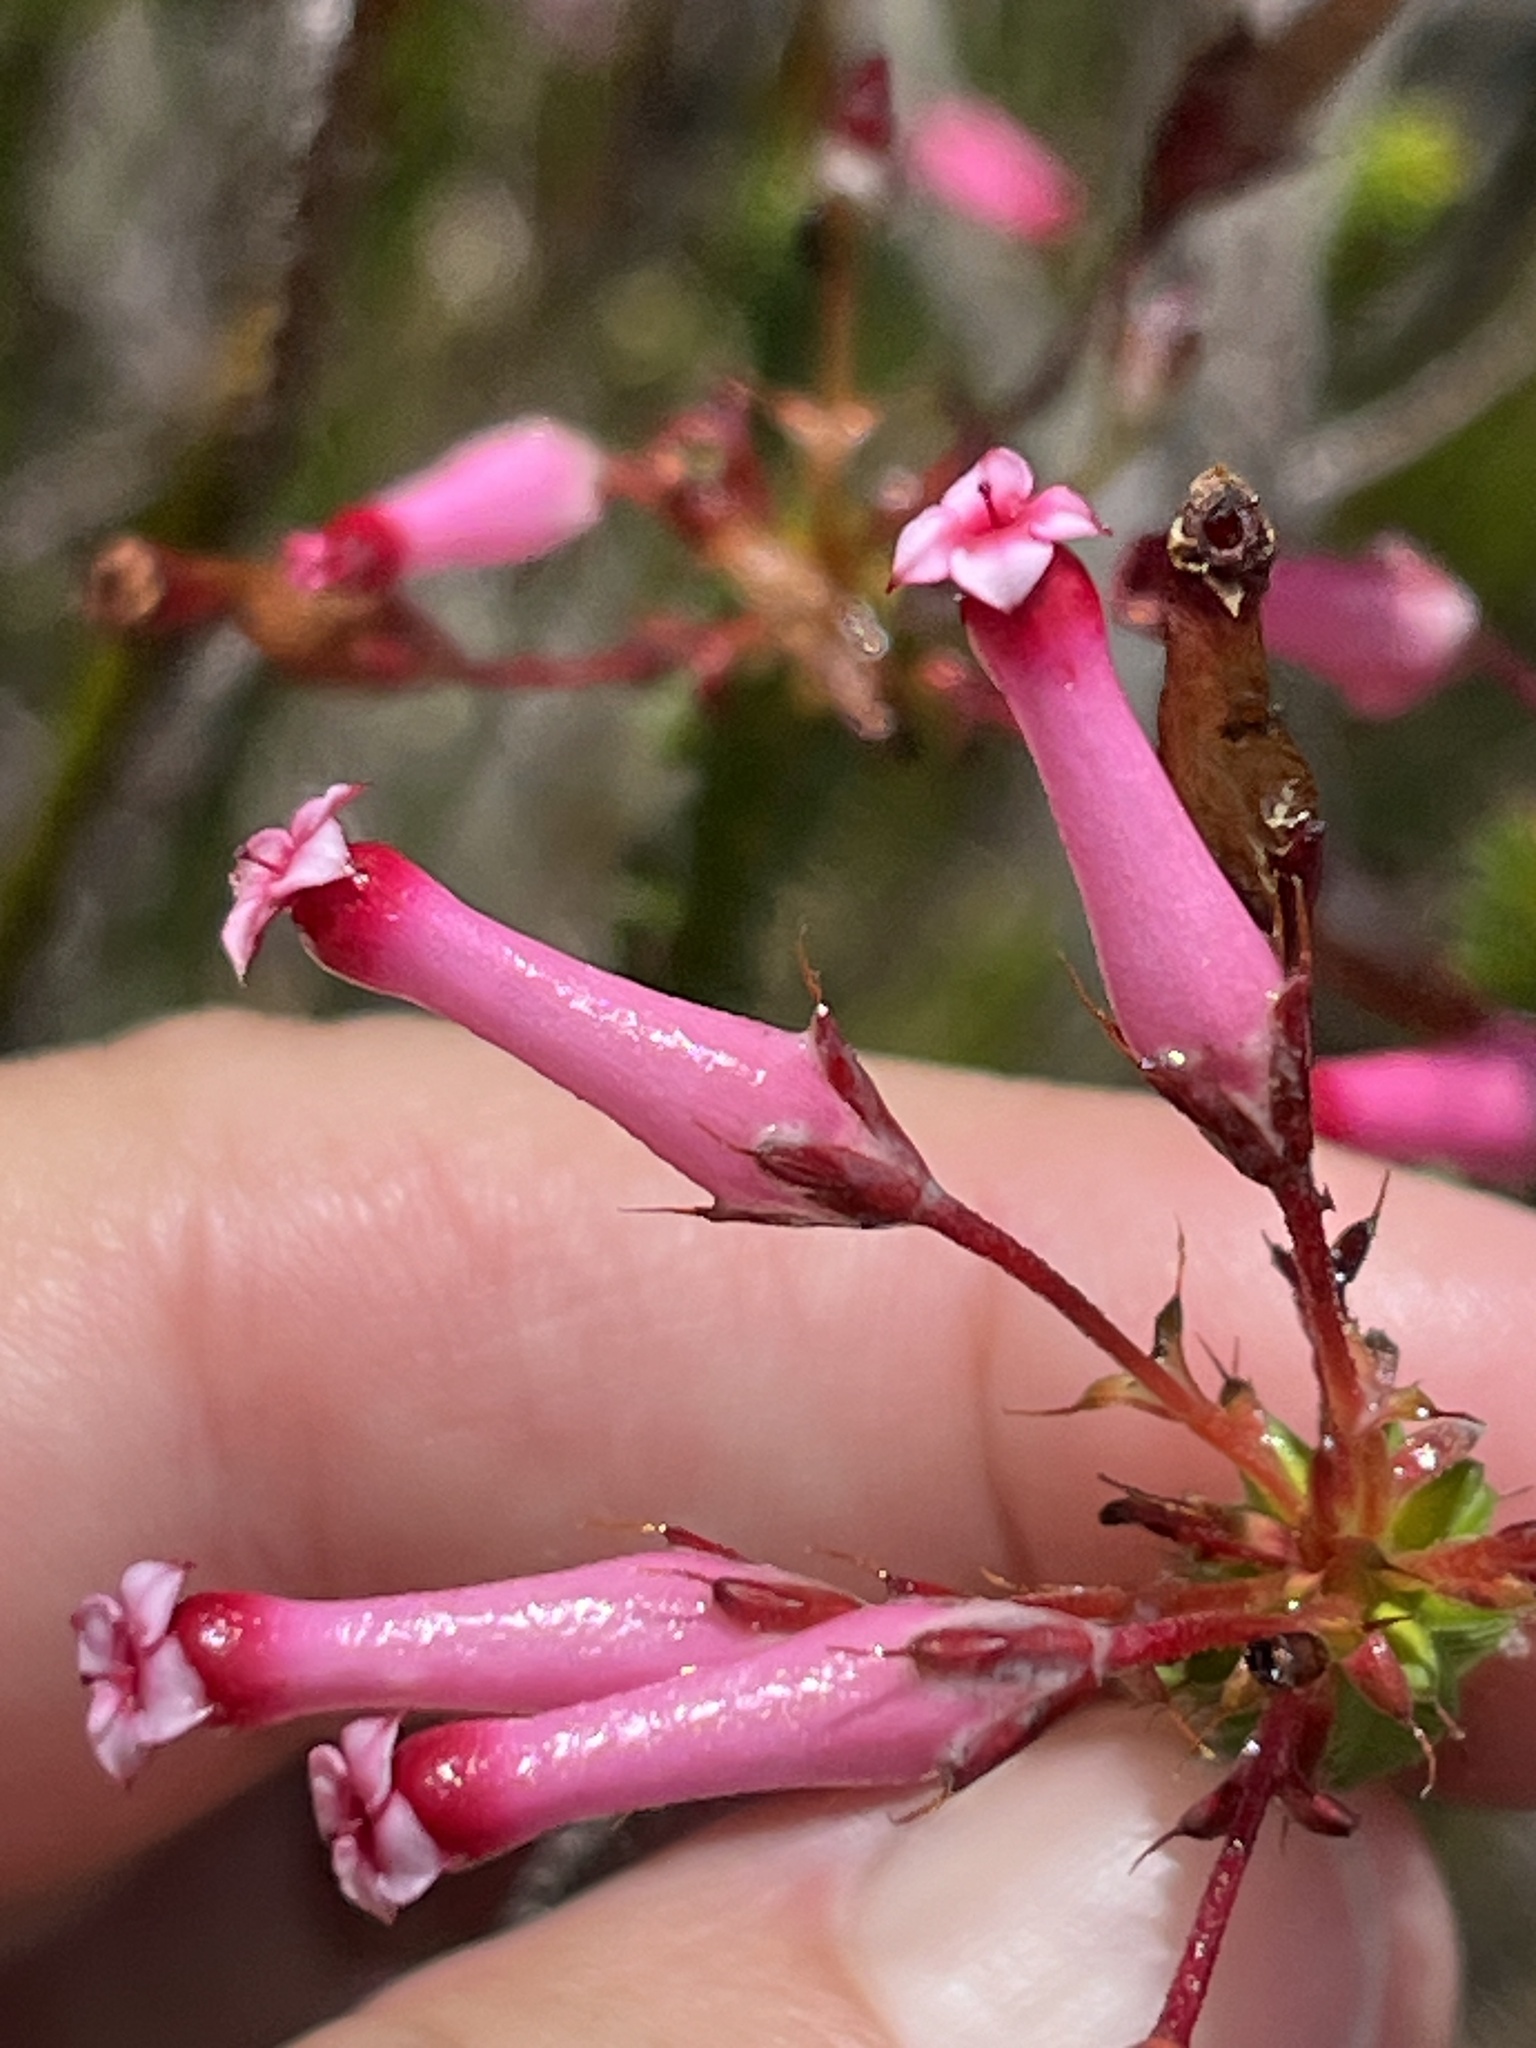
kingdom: Plantae
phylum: Tracheophyta
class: Magnoliopsida
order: Ericales
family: Ericaceae
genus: Erica
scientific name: Erica retorta
